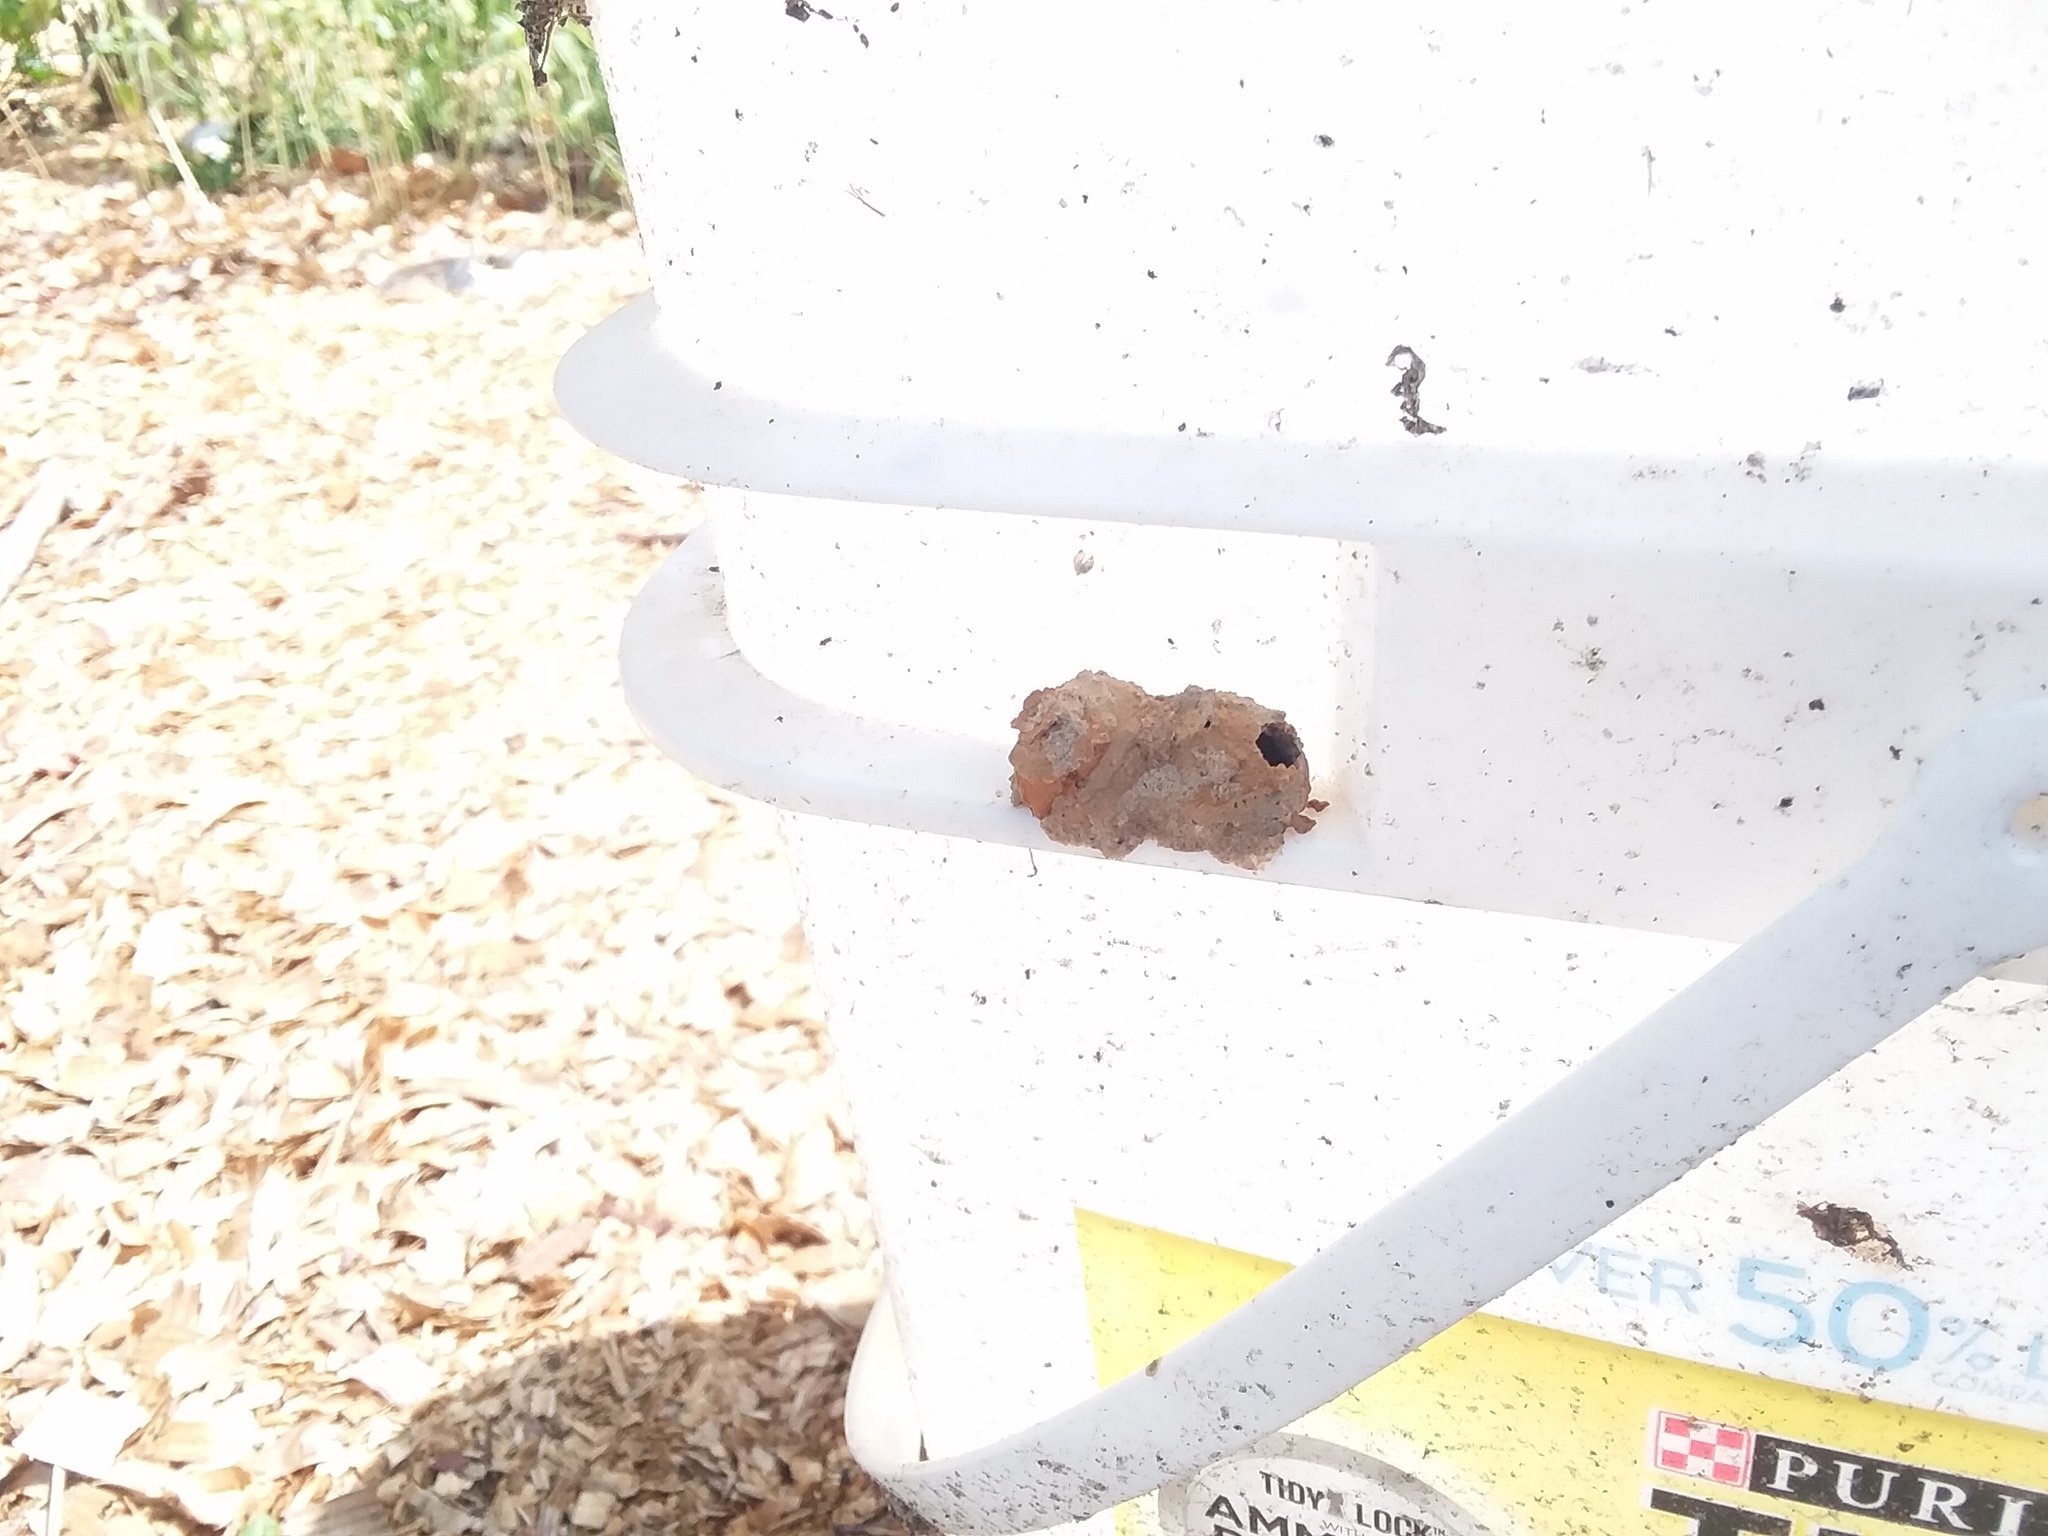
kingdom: Animalia
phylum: Arthropoda
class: Insecta
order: Hymenoptera
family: Vespidae
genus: Eumenes
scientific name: Eumenes fraternus
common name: Fraternal potter wasp
